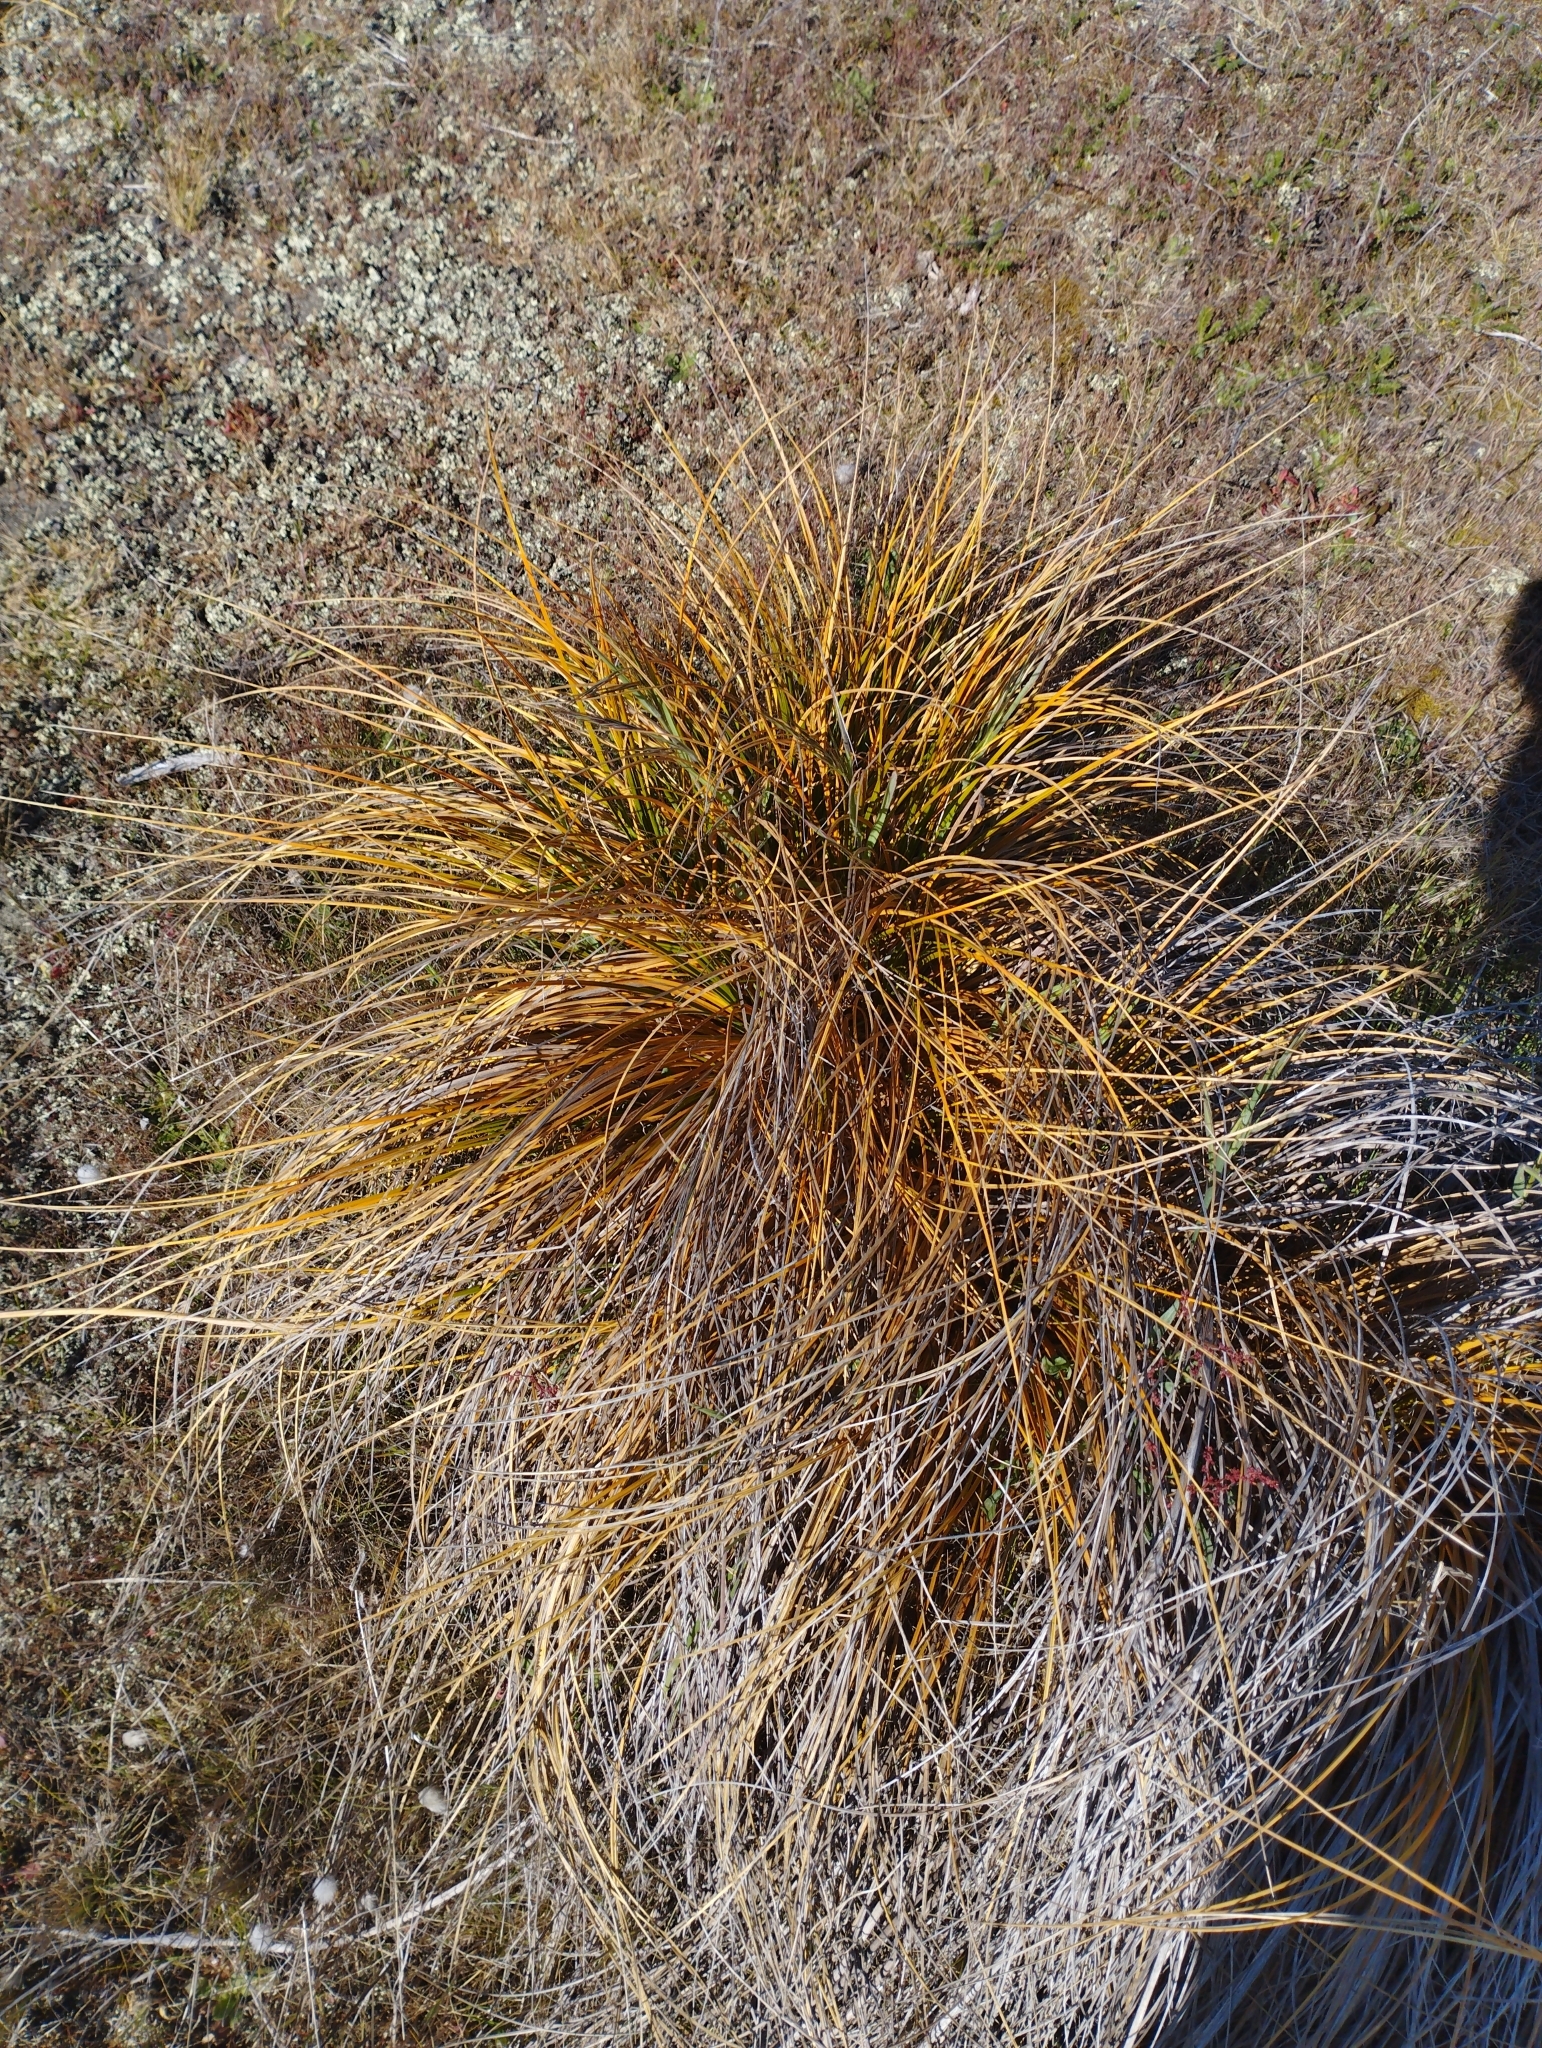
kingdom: Plantae
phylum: Tracheophyta
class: Liliopsida
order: Poales
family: Cyperaceae
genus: Ficinia
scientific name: Ficinia spiralis
